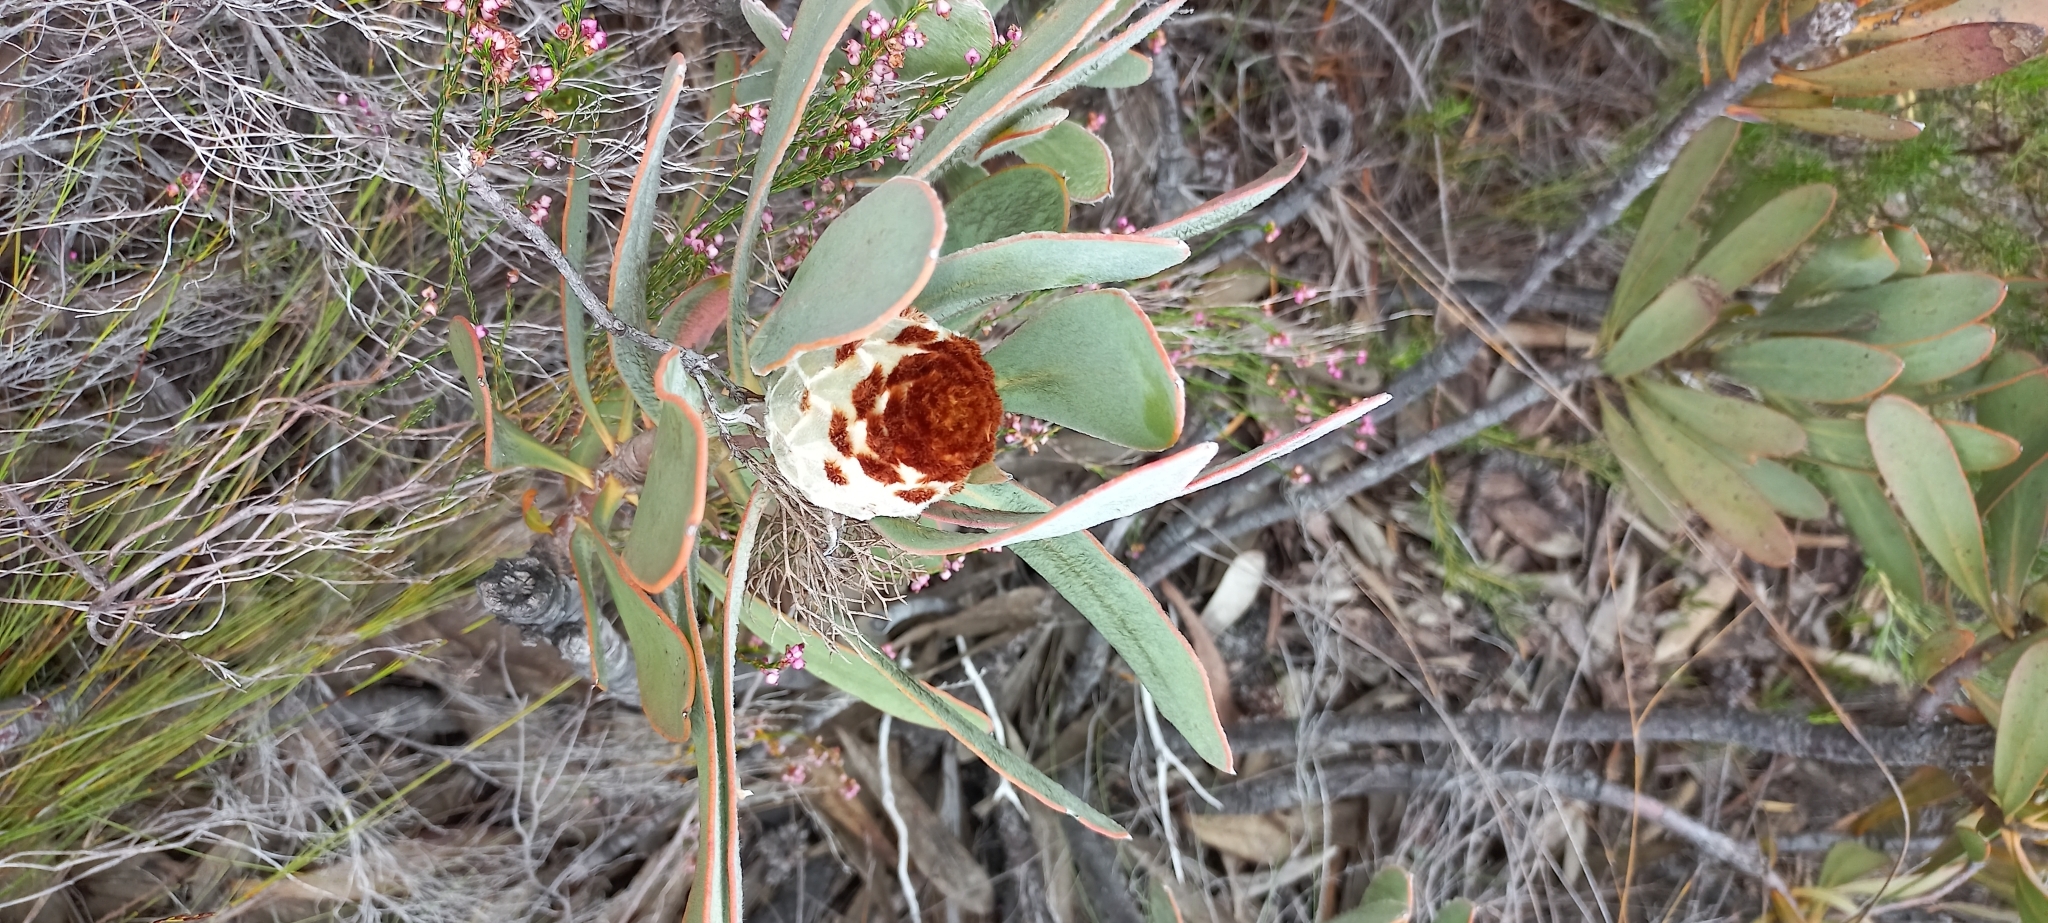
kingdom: Plantae
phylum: Tracheophyta
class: Magnoliopsida
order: Proteales
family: Proteaceae
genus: Protea
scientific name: Protea speciosa
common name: Brown-beard sugarbush
